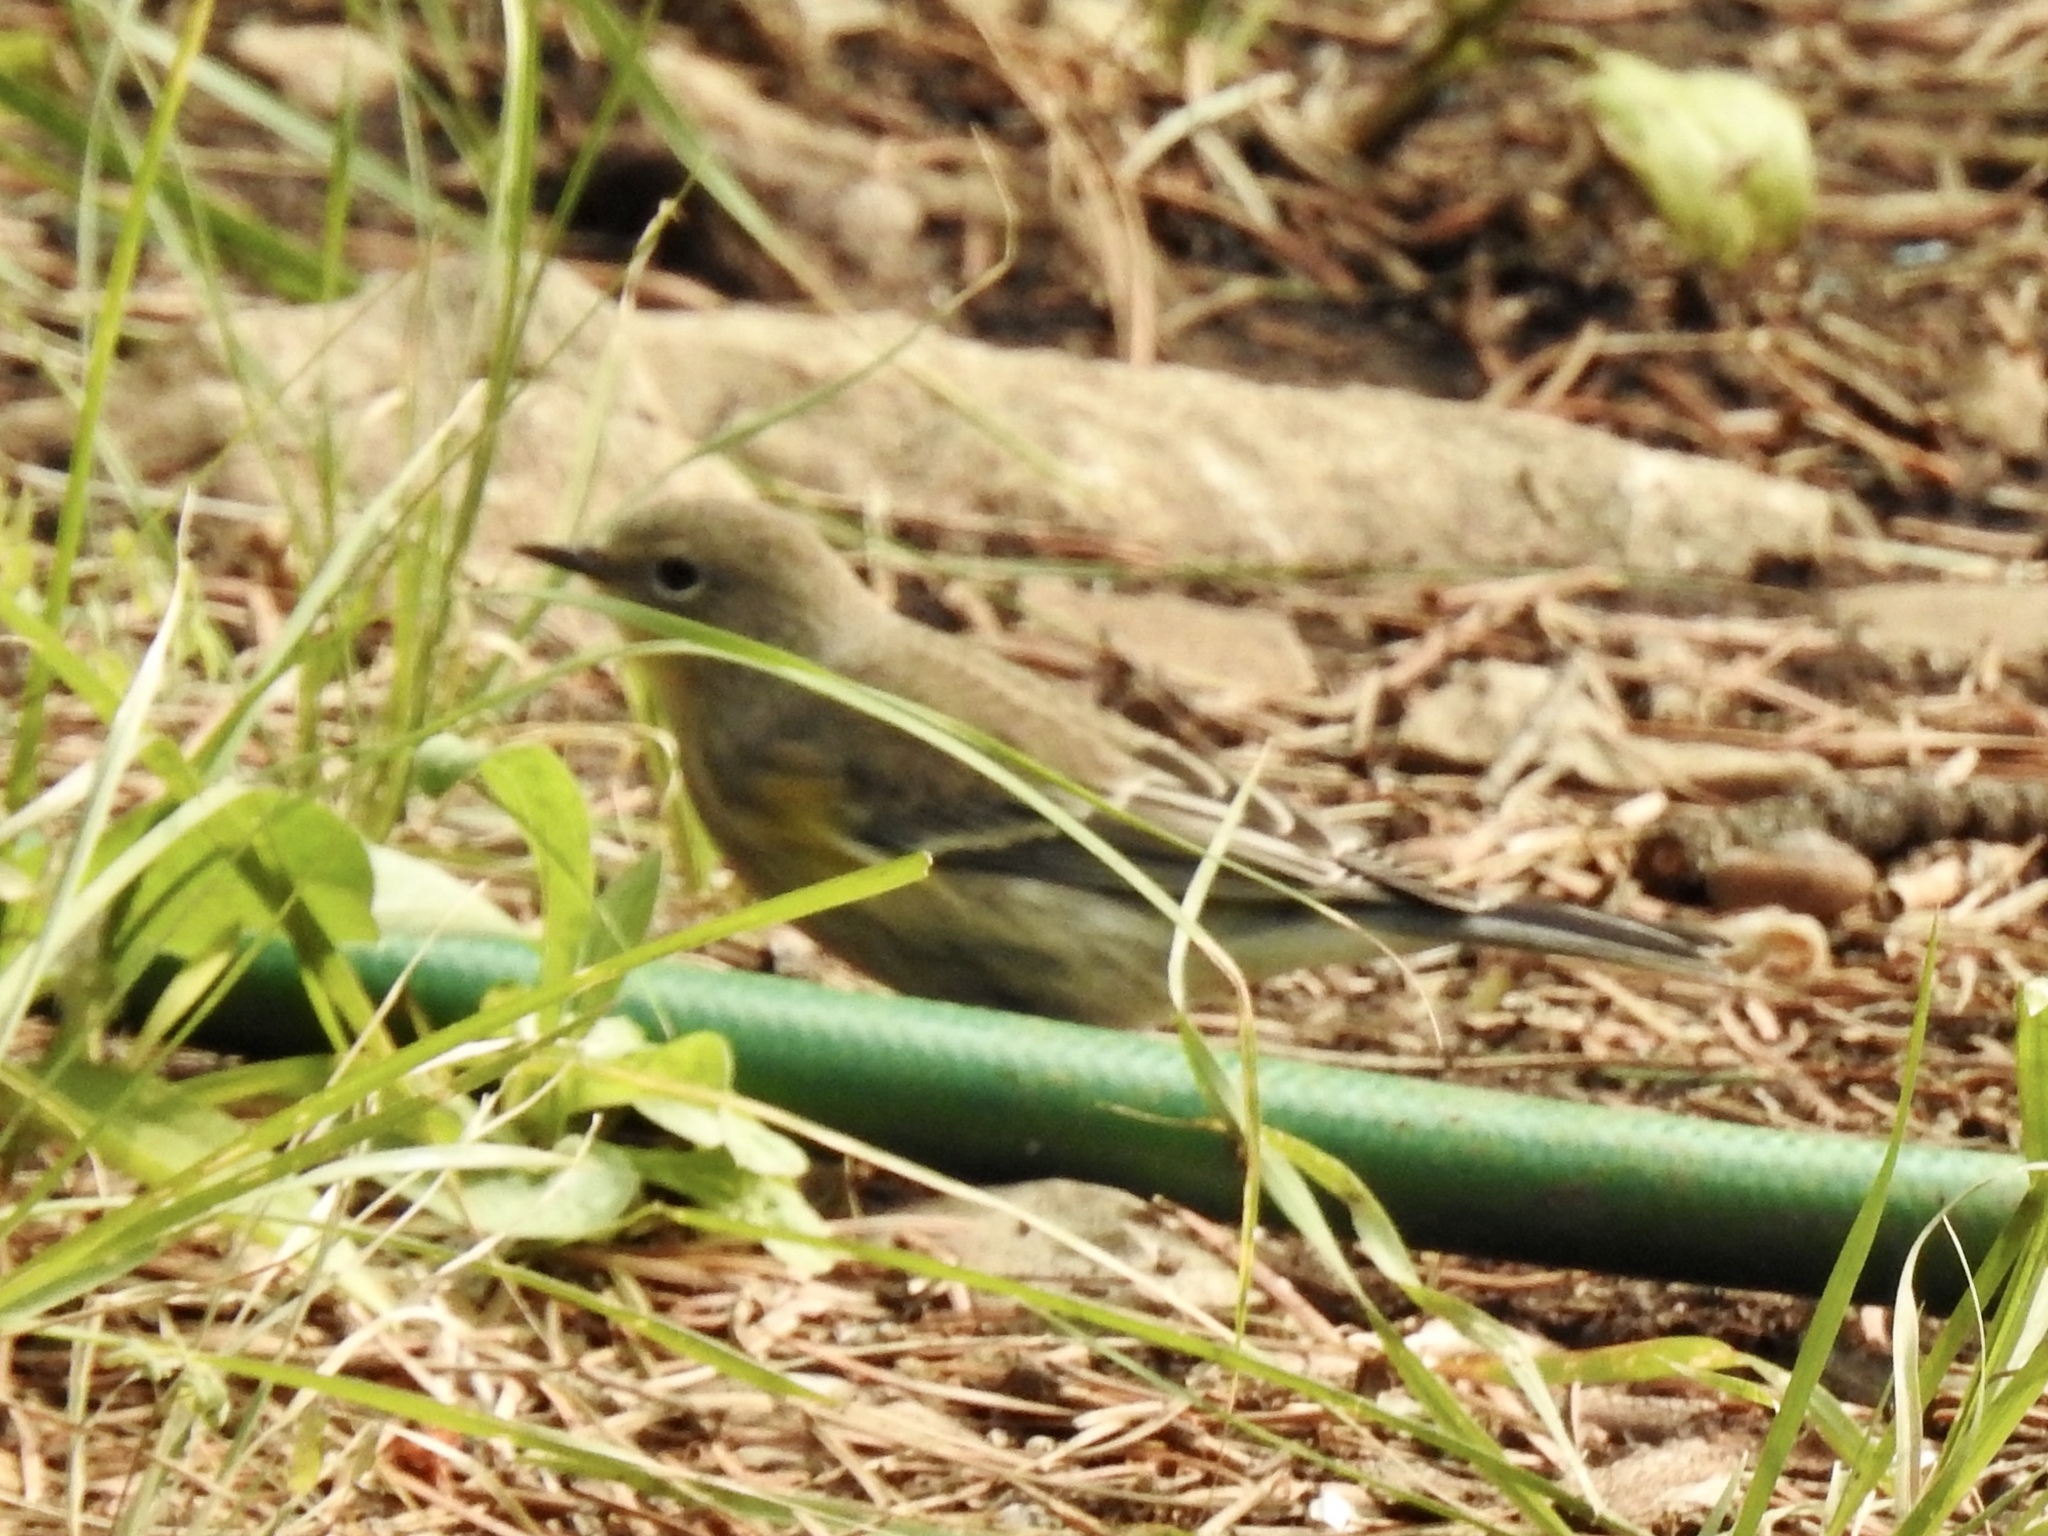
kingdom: Animalia
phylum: Chordata
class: Aves
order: Passeriformes
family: Parulidae
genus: Setophaga
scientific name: Setophaga coronata
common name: Myrtle warbler
